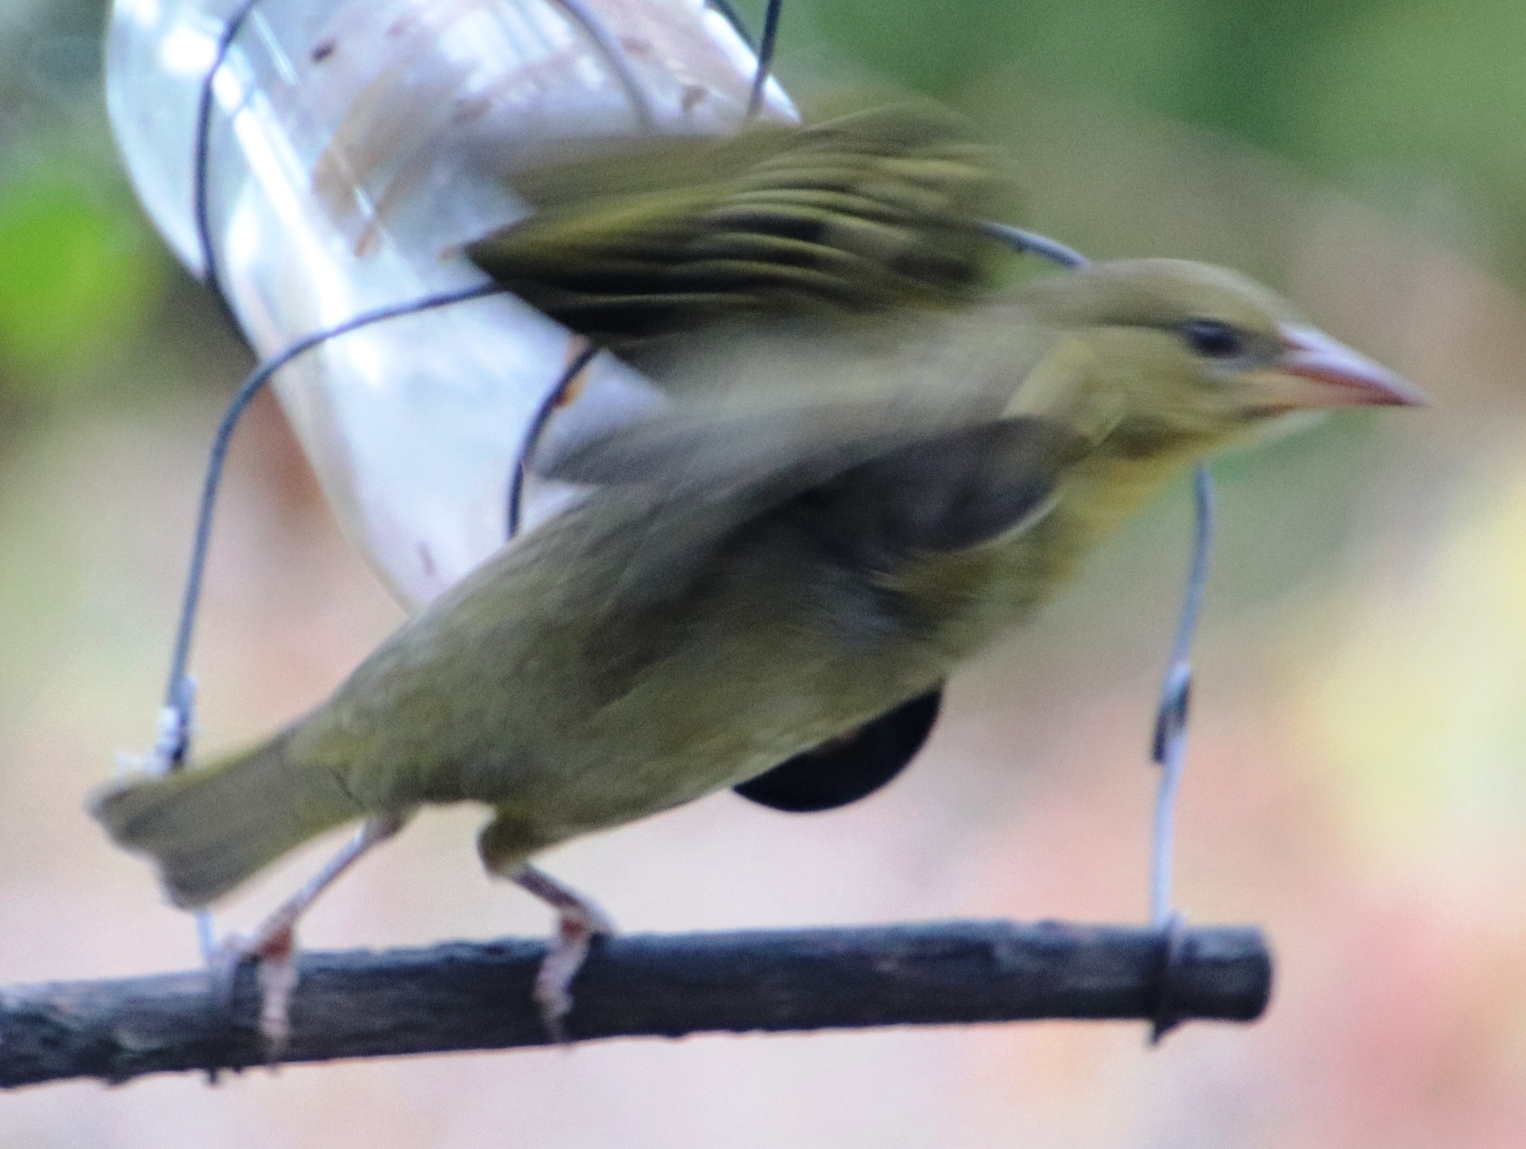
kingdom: Animalia
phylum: Chordata
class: Aves
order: Passeriformes
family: Ploceidae
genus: Ploceus
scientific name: Ploceus capensis
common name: Cape weaver
